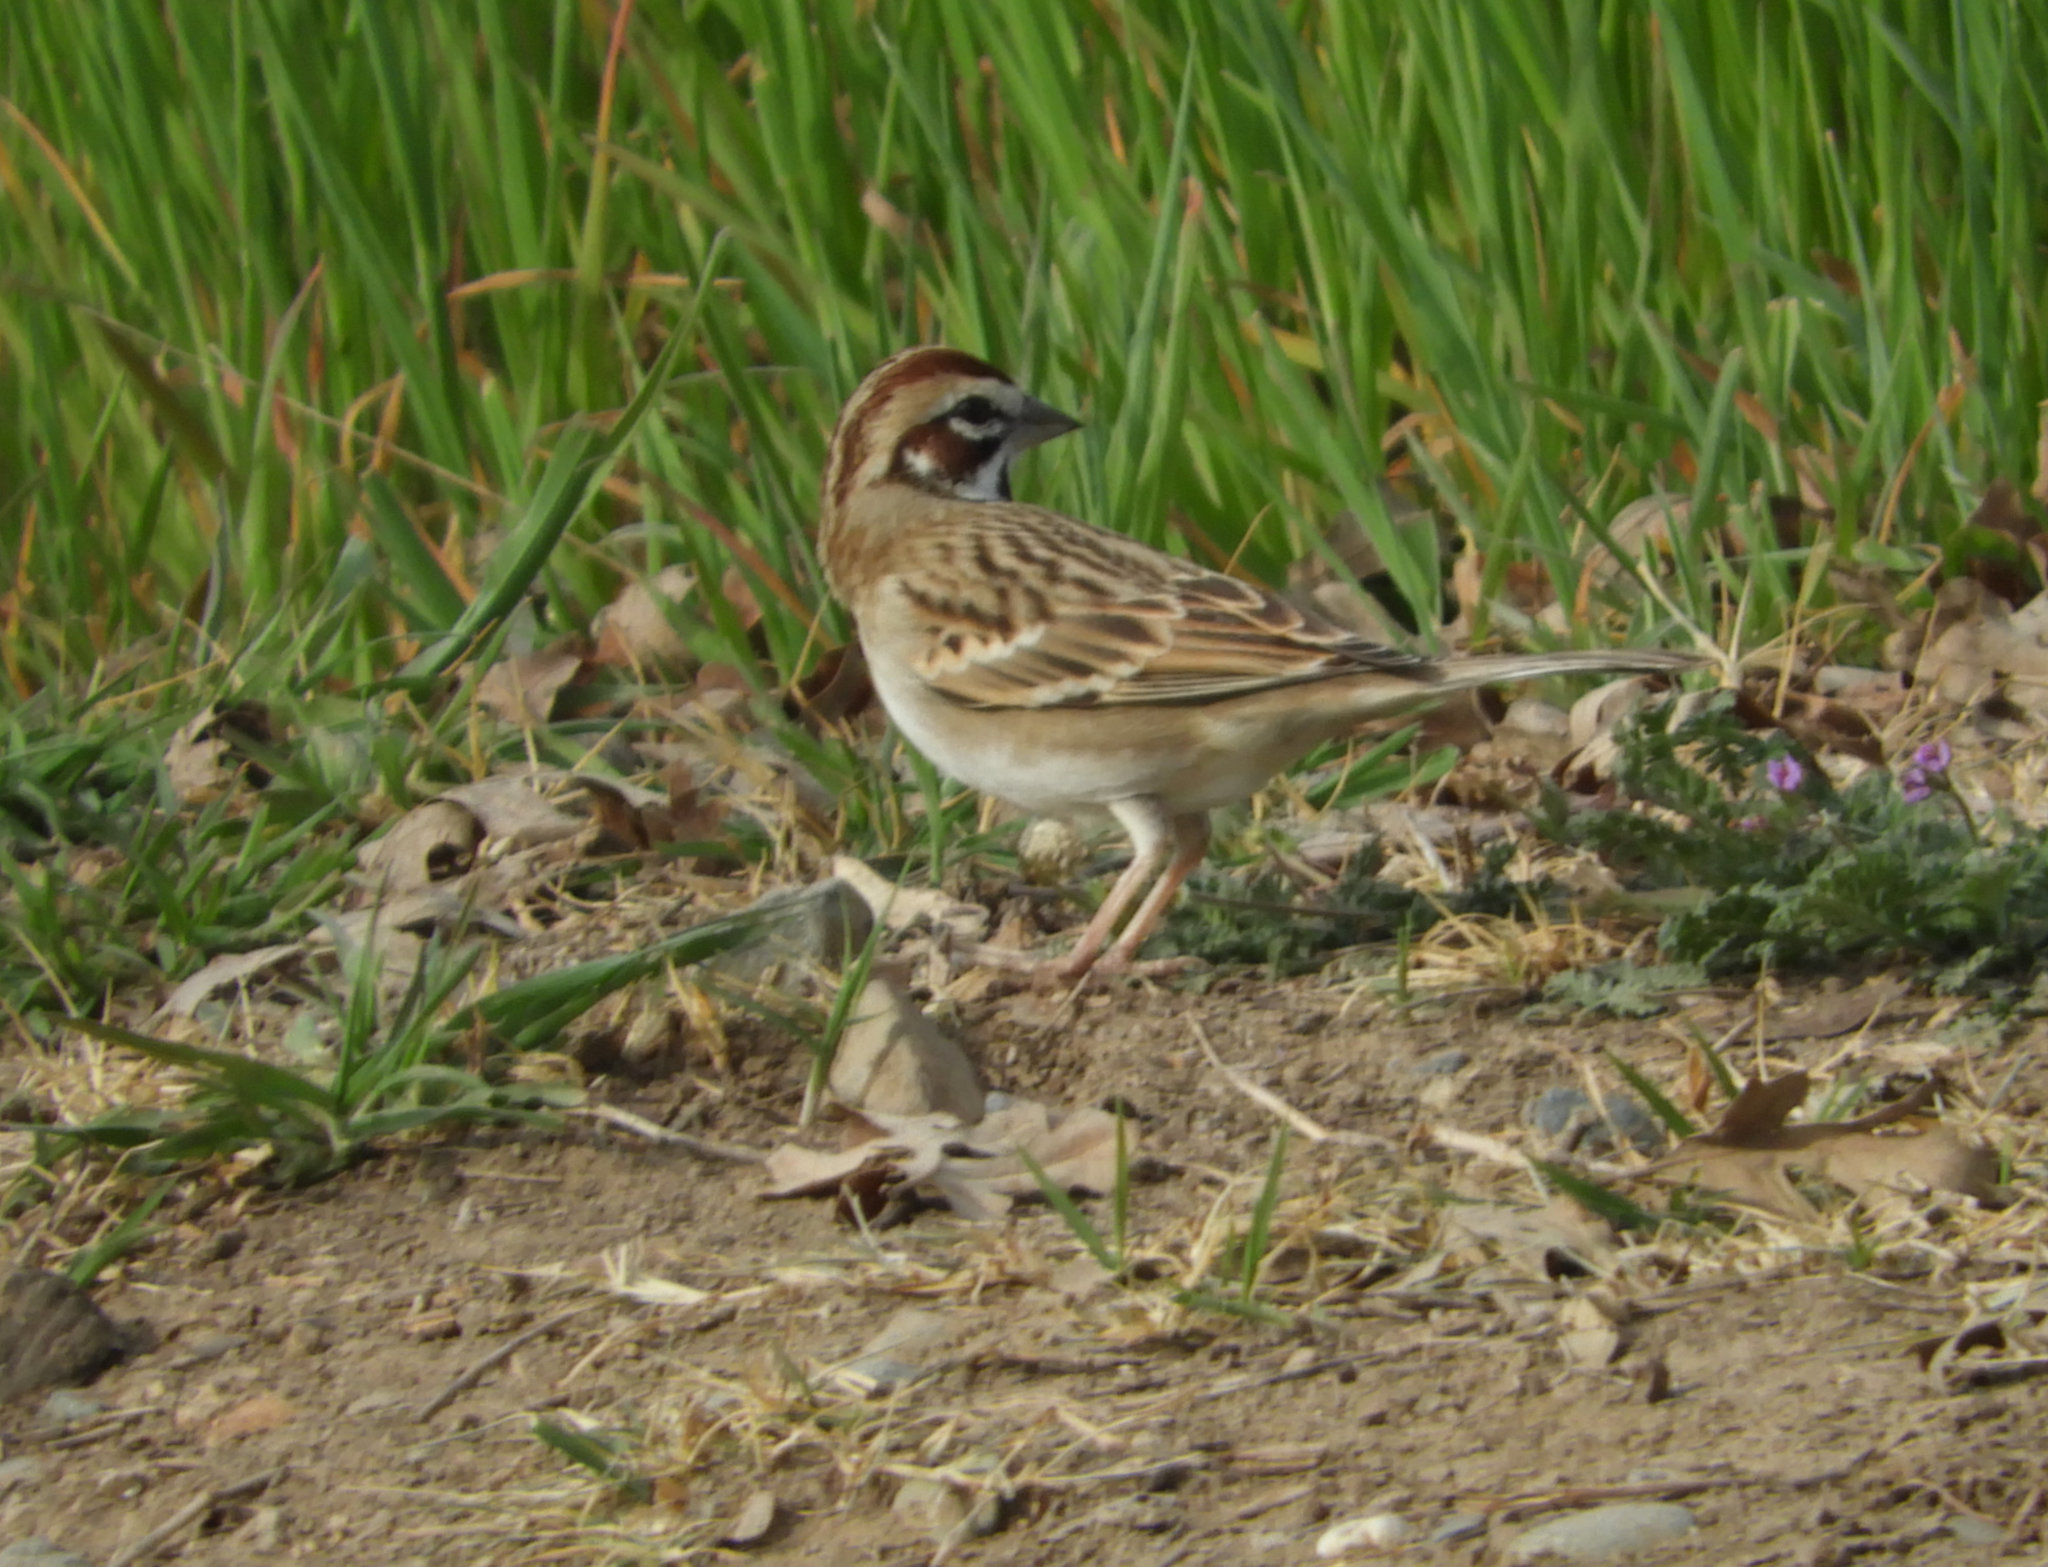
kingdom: Animalia
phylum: Chordata
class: Aves
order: Passeriformes
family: Passerellidae
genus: Chondestes
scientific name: Chondestes grammacus
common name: Lark sparrow
